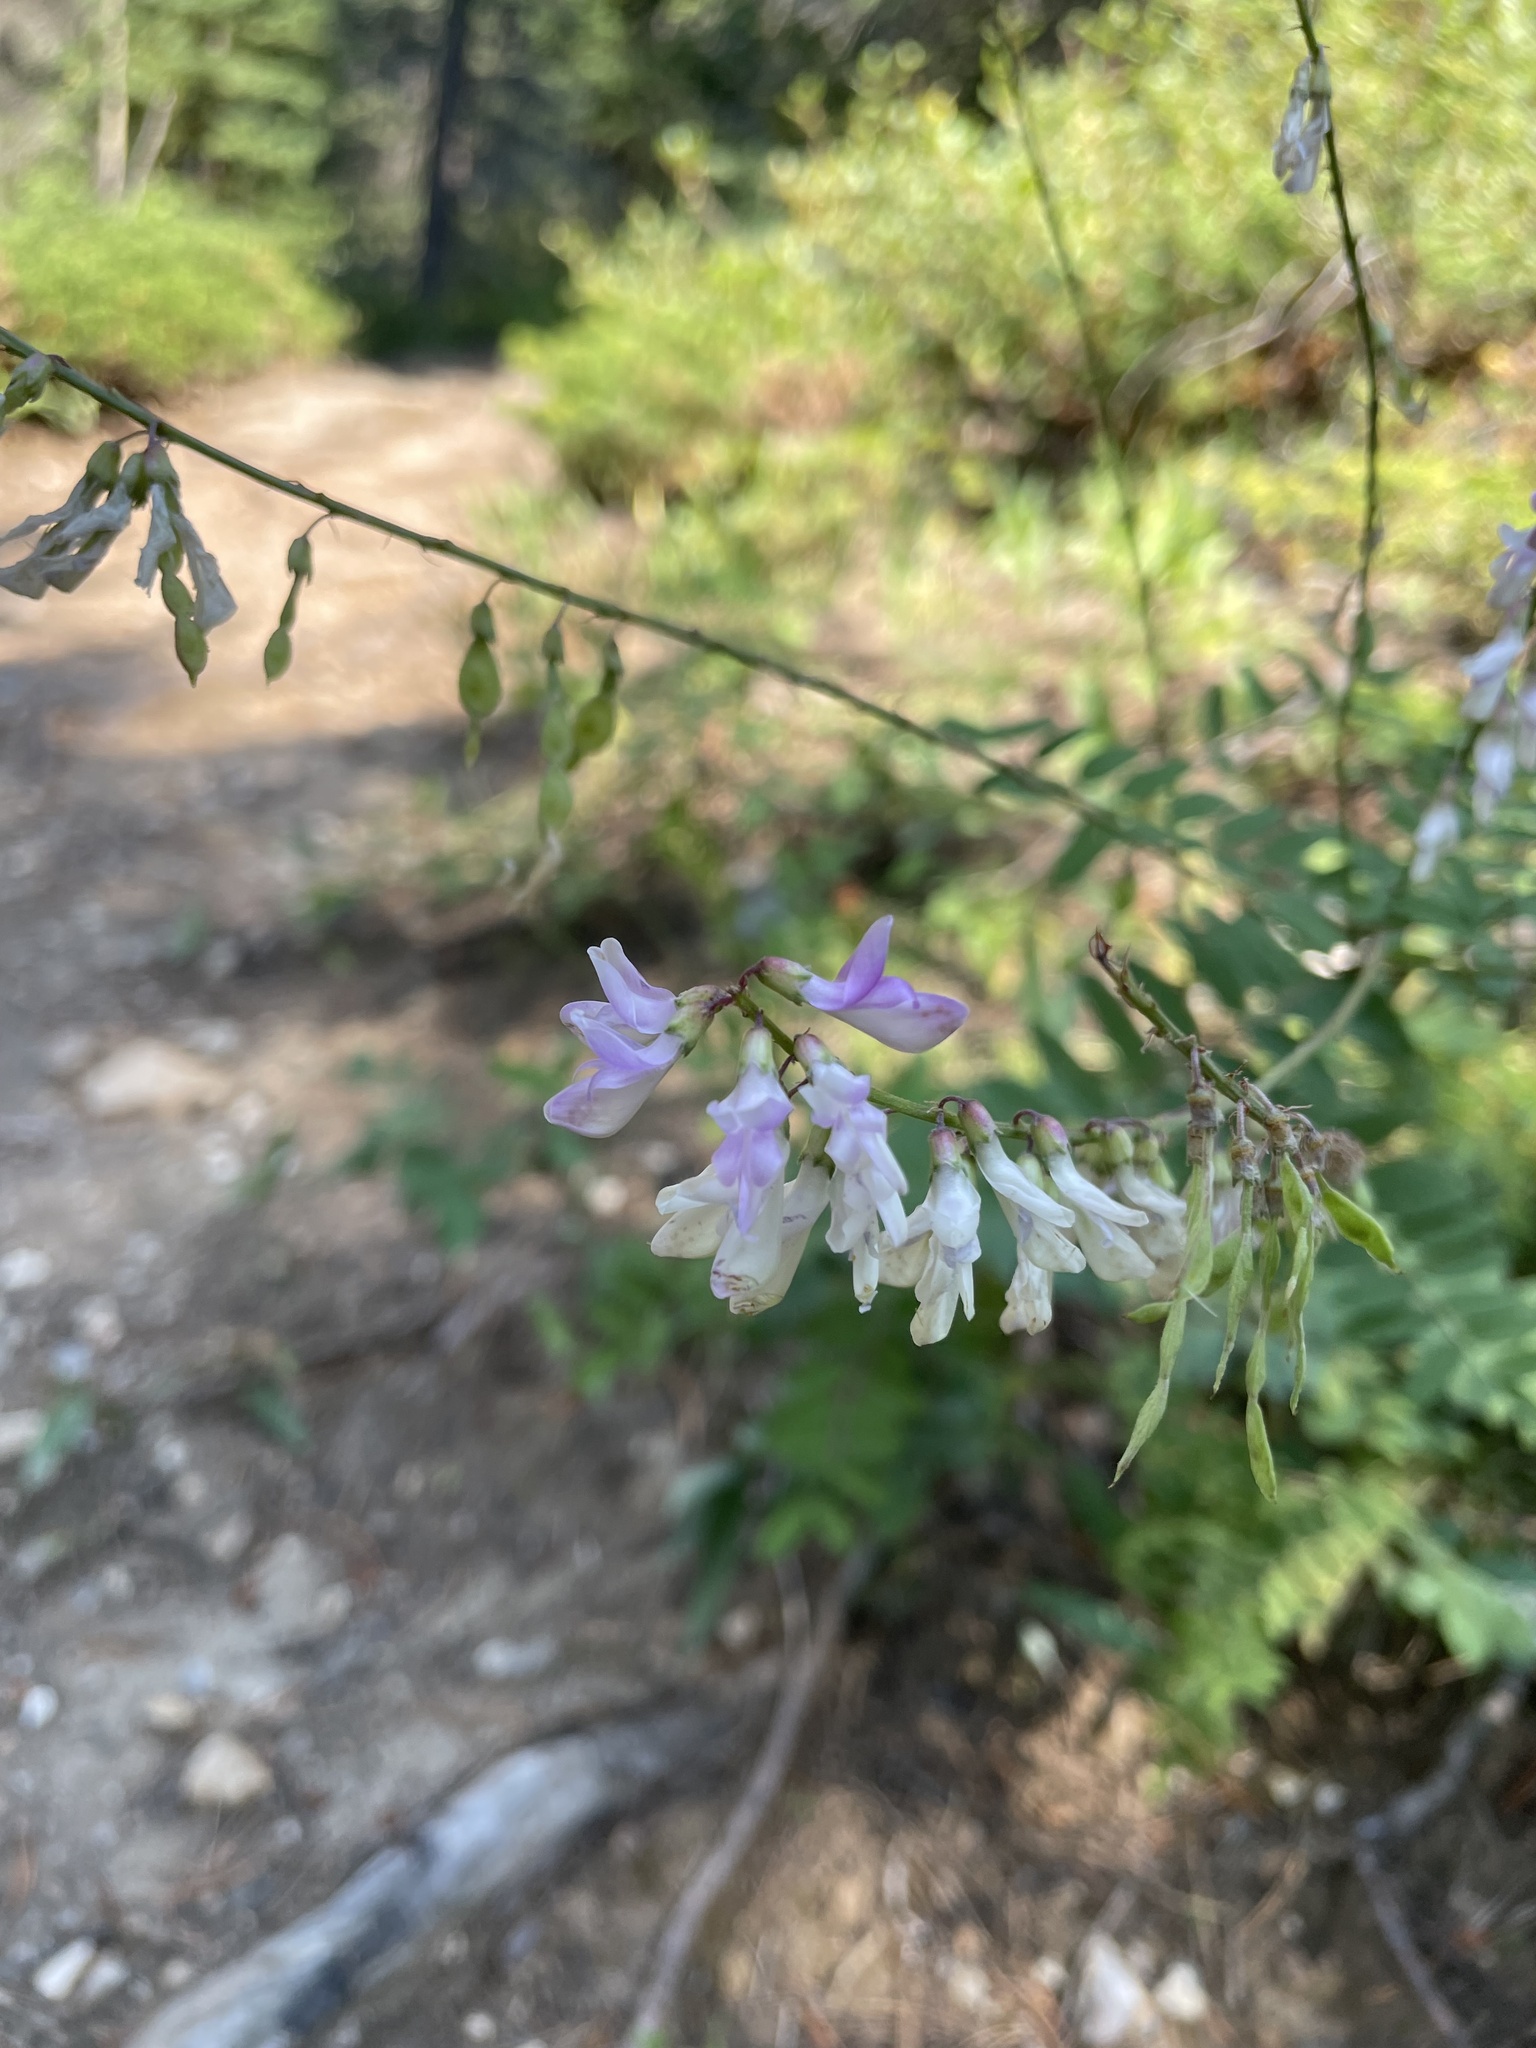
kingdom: Plantae
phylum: Tracheophyta
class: Magnoliopsida
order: Fabales
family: Fabaceae
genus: Hedysarum
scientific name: Hedysarum alpinum
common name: Alpine sweet-vetch
